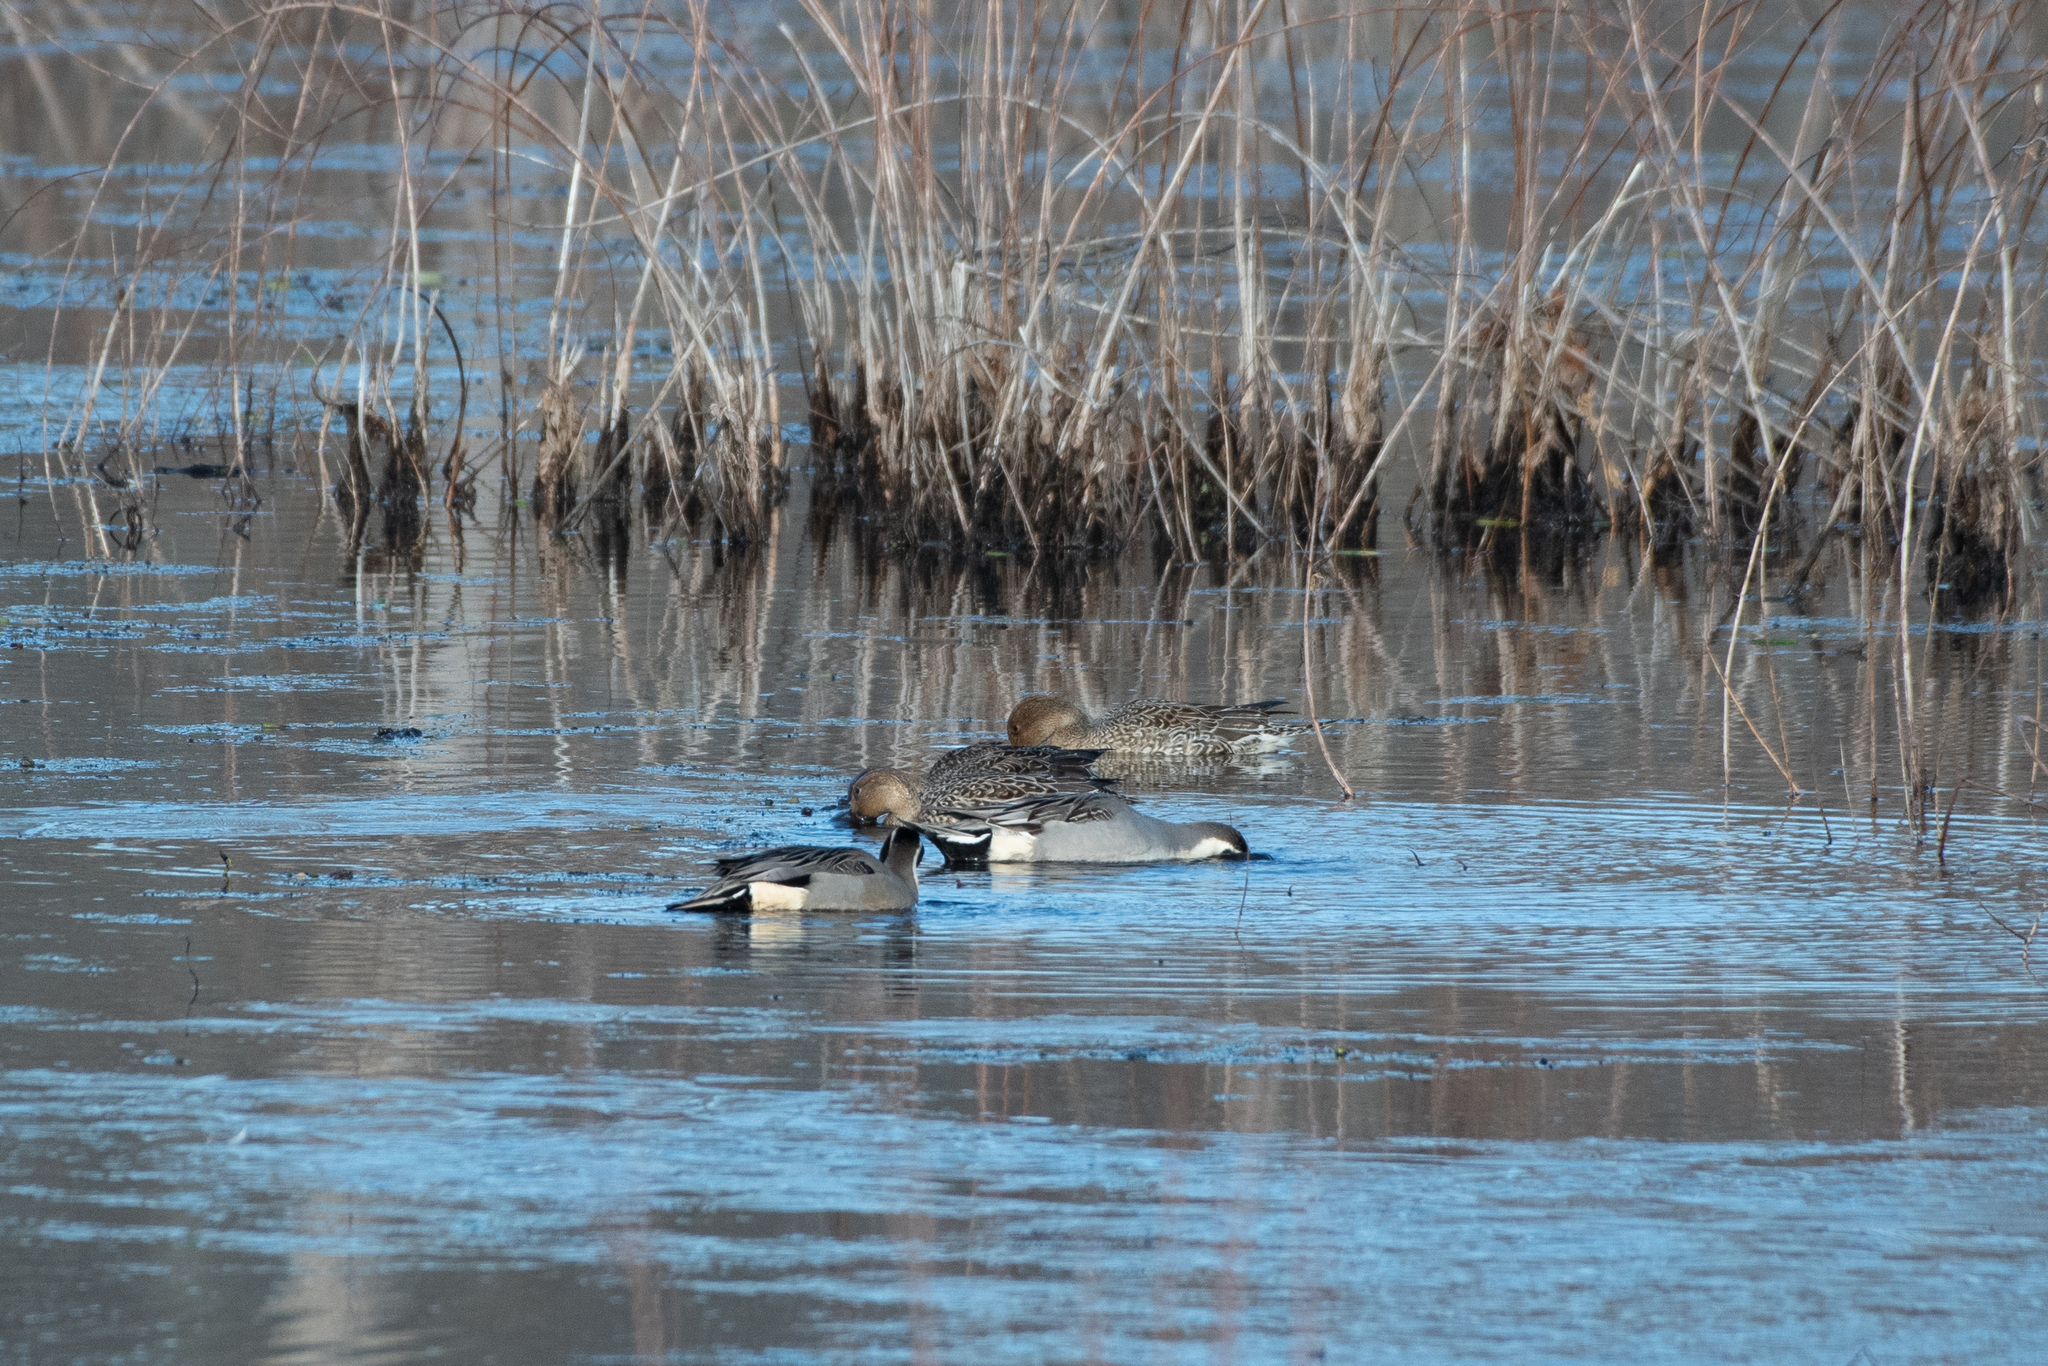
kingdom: Animalia
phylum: Chordata
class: Aves
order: Anseriformes
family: Anatidae
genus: Anas
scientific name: Anas acuta
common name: Northern pintail
